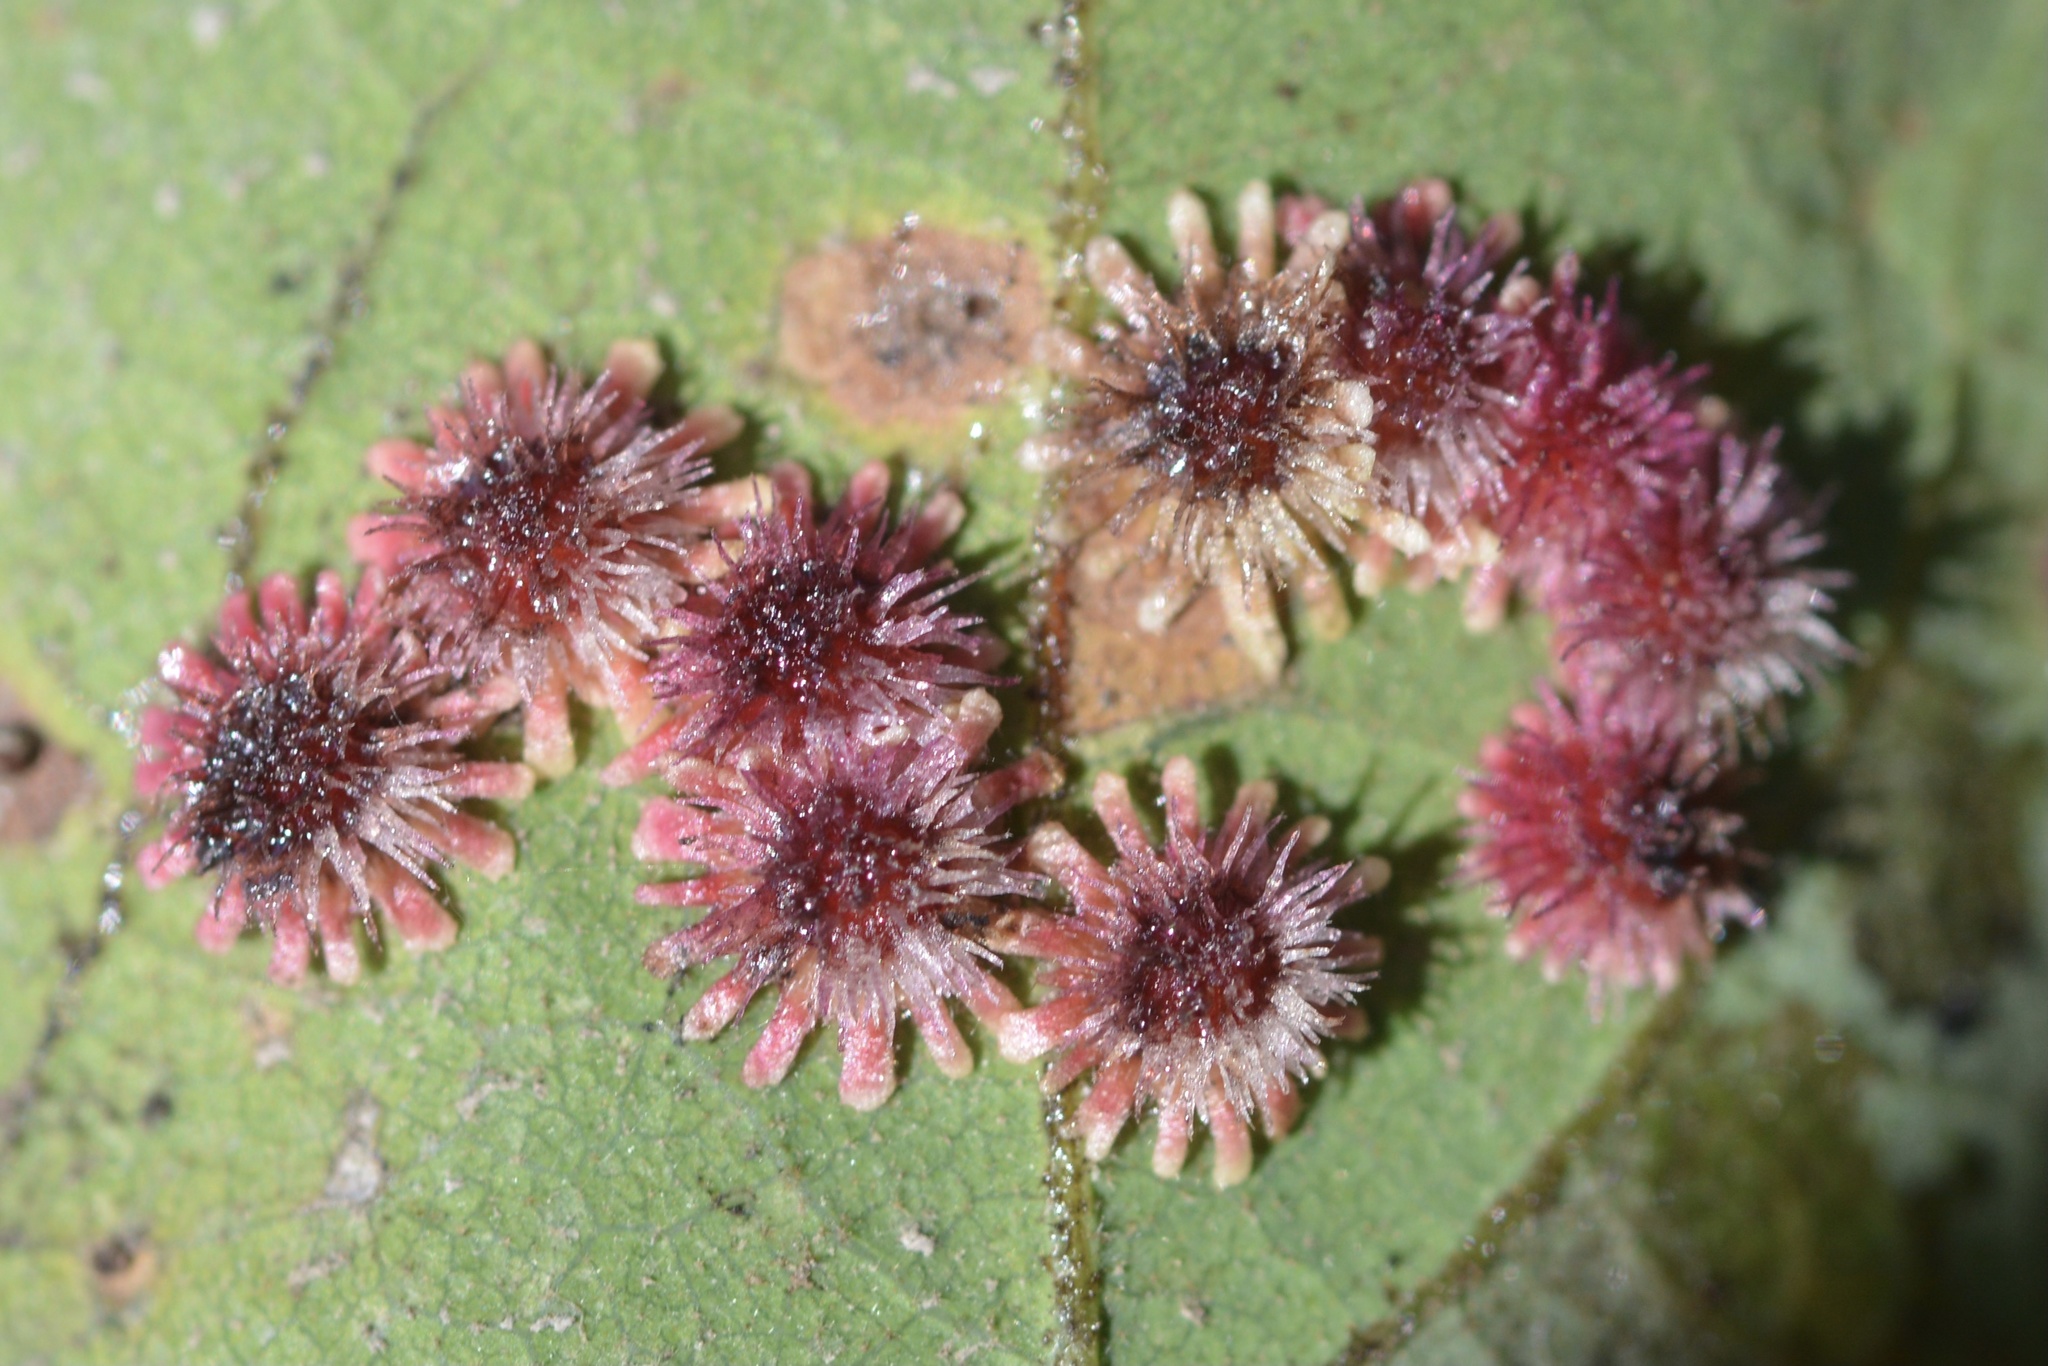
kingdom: Animalia
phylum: Arthropoda
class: Insecta
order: Hymenoptera
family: Cynipidae
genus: Andricus
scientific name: Andricus
